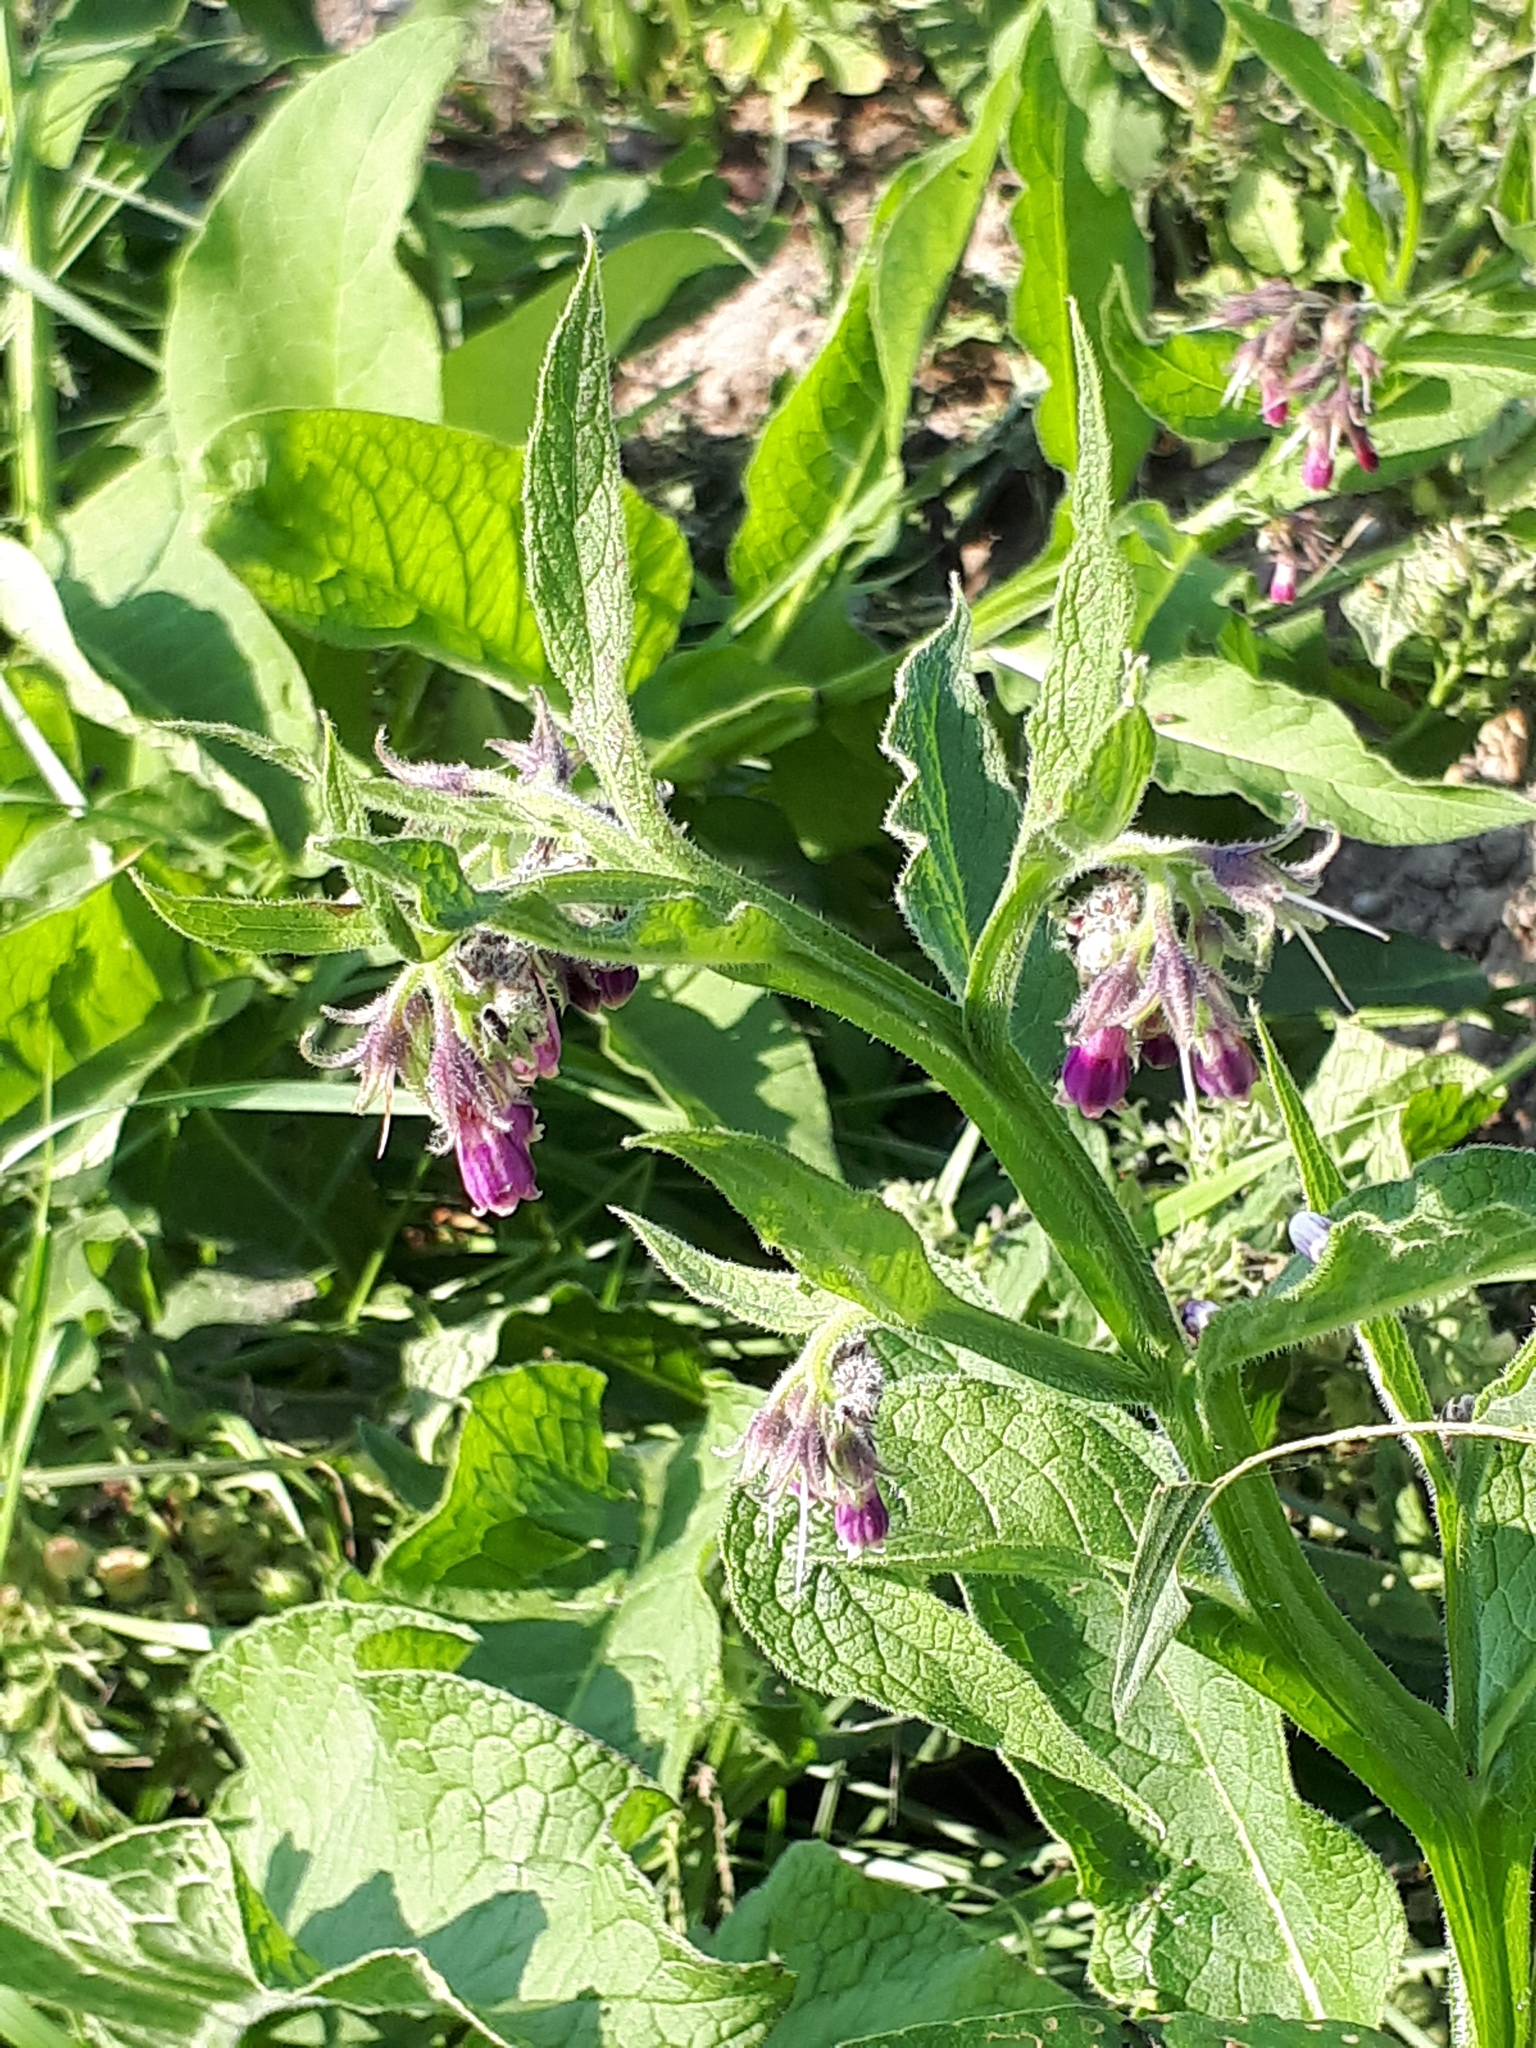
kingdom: Plantae
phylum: Tracheophyta
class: Magnoliopsida
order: Boraginales
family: Boraginaceae
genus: Symphytum
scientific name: Symphytum officinale
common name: Common comfrey
